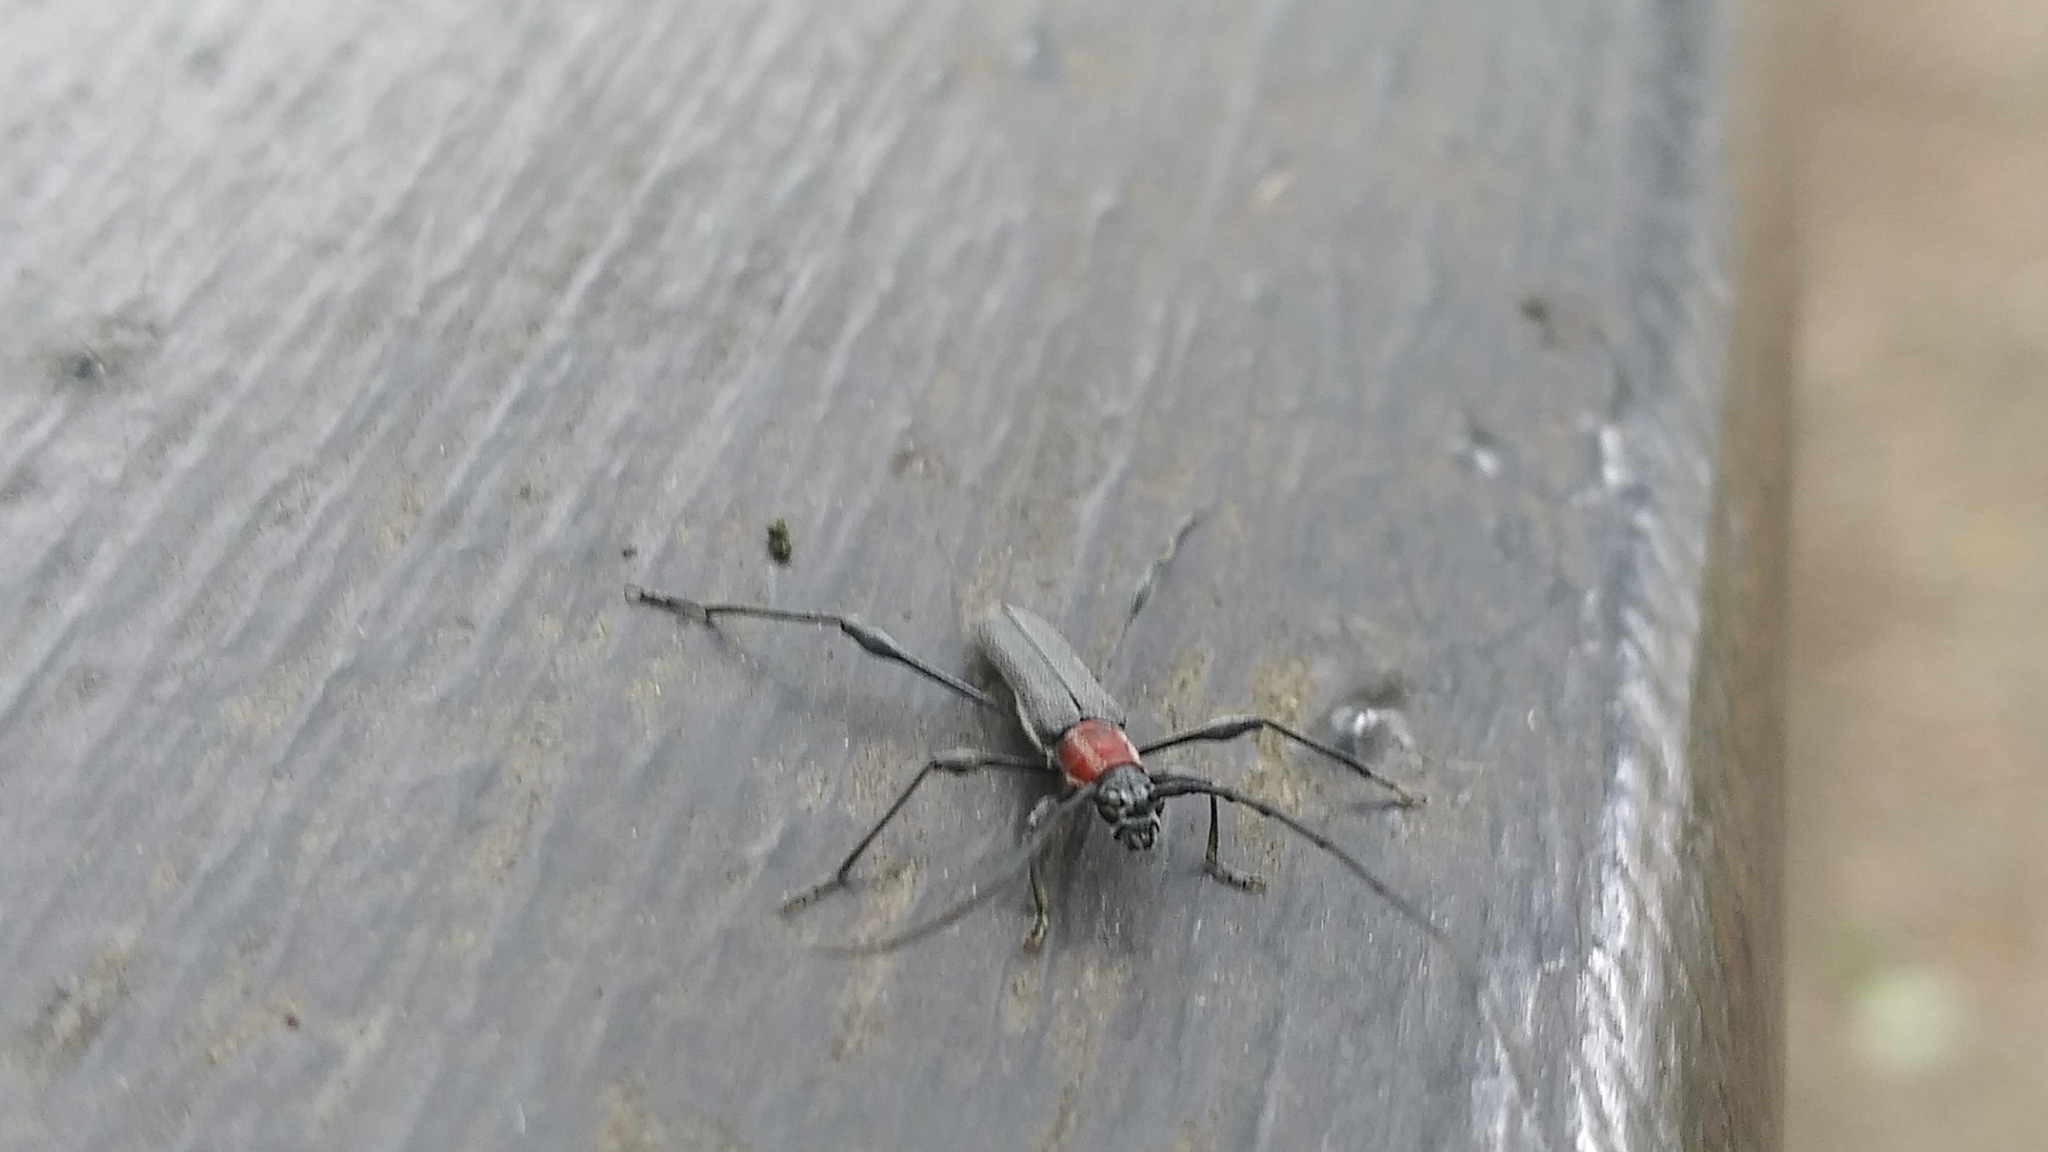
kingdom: Animalia
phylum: Arthropoda
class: Insecta
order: Coleoptera
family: Cerambycidae
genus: Rhopalophora
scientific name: Rhopalophora longipes
